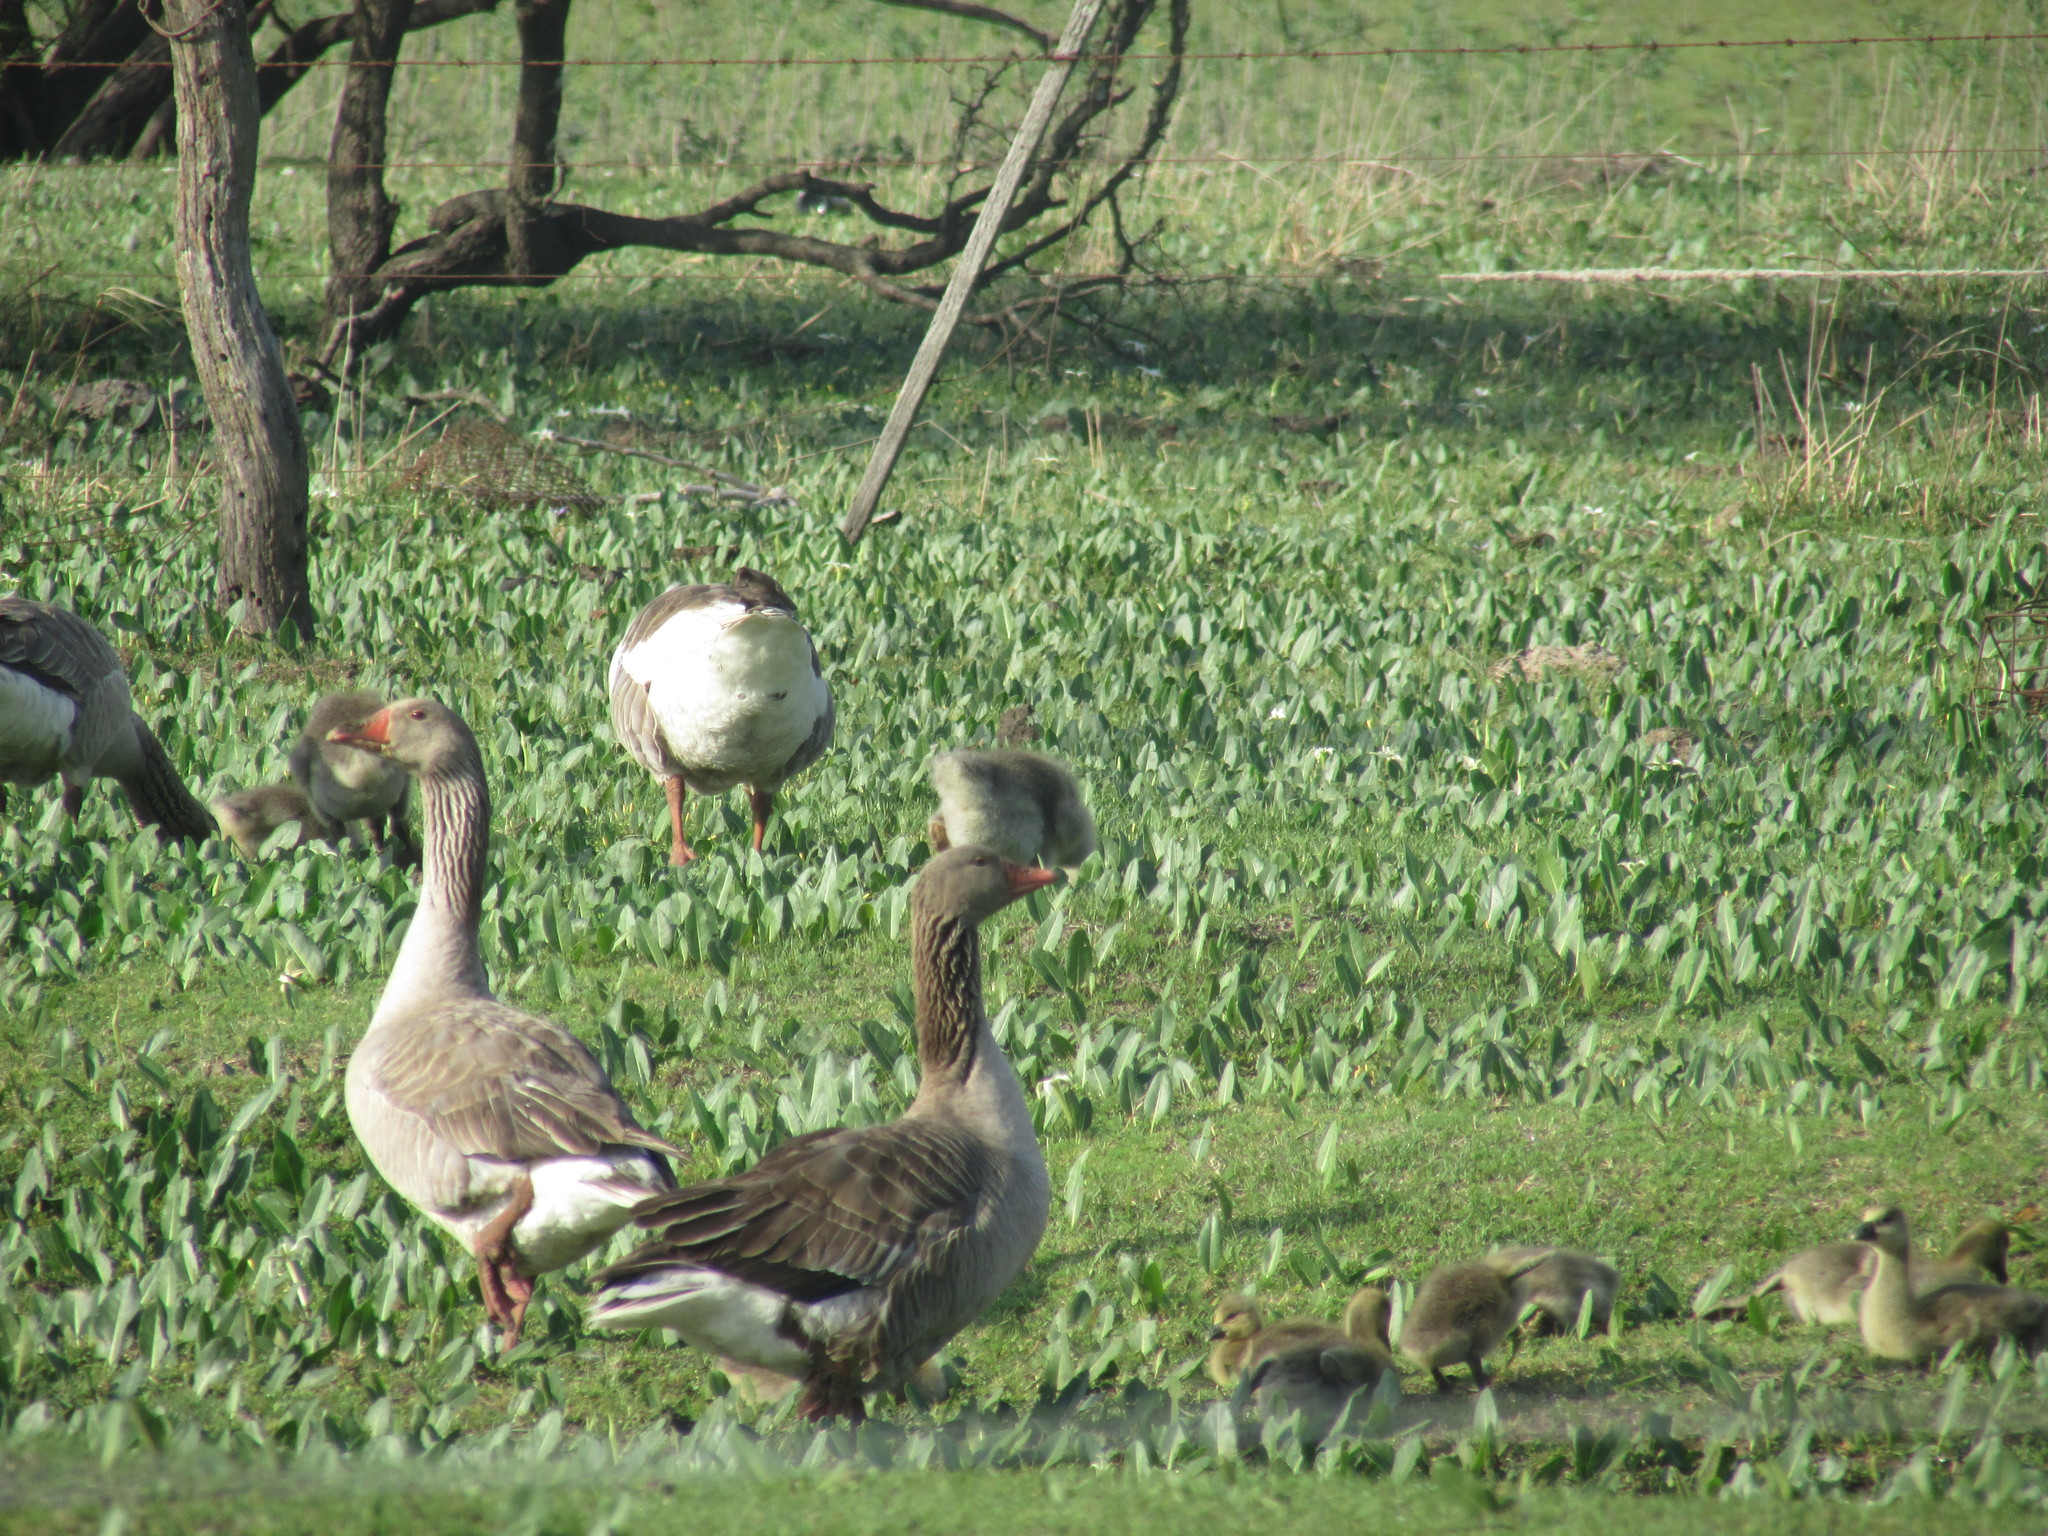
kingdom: Animalia
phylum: Chordata
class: Aves
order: Anseriformes
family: Anatidae
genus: Anser
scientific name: Anser anser
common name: Greylag goose
